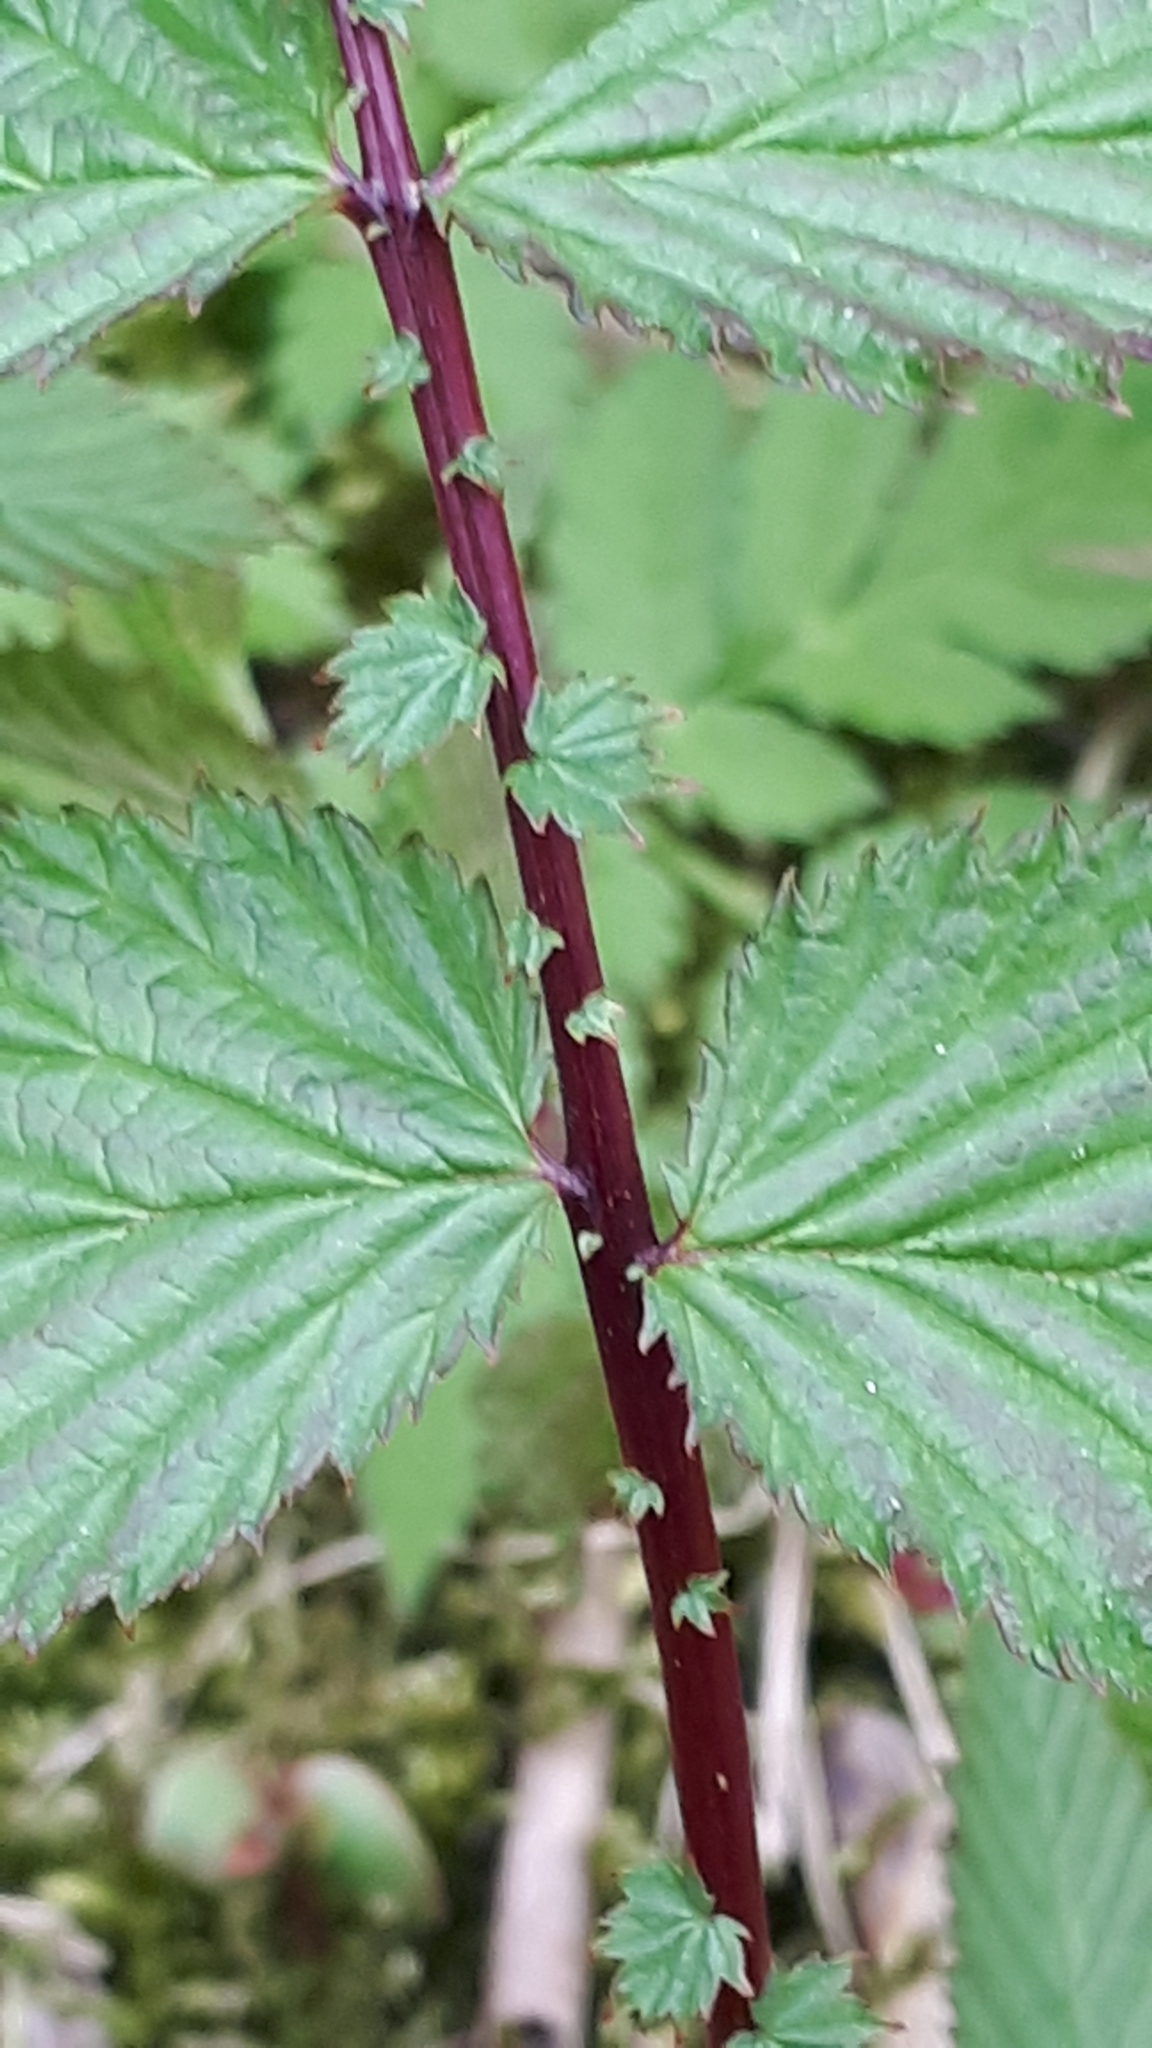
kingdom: Plantae
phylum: Tracheophyta
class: Magnoliopsida
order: Rosales
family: Rosaceae
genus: Filipendula
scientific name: Filipendula ulmaria
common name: Meadowsweet
